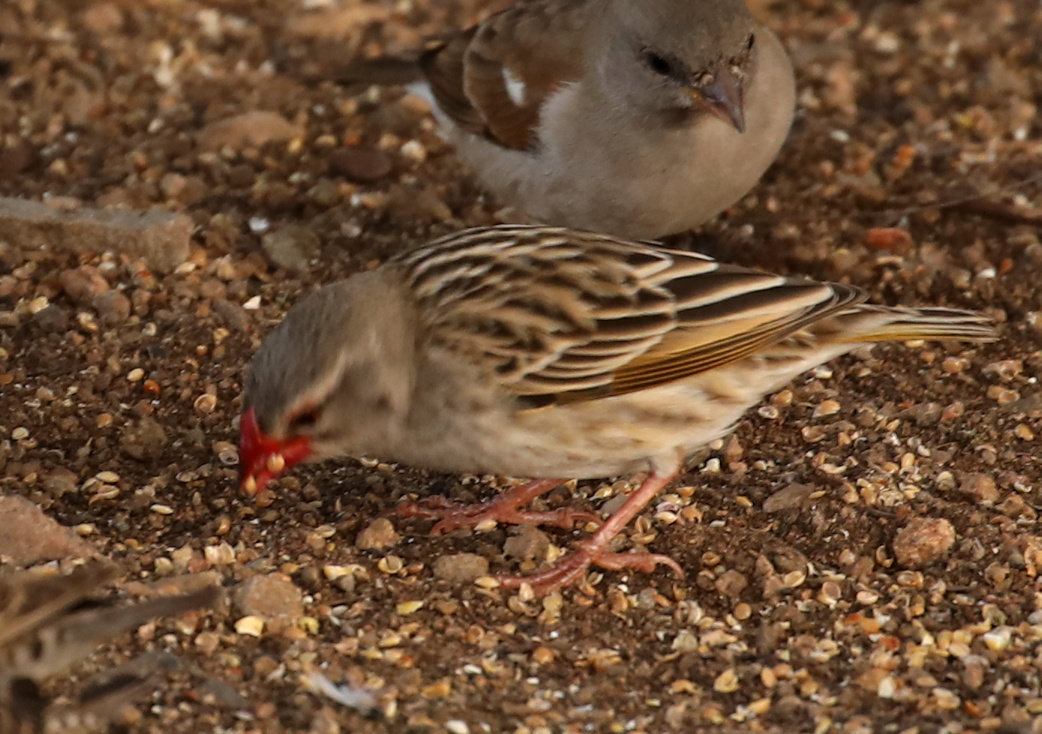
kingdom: Animalia
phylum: Chordata
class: Aves
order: Passeriformes
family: Ploceidae
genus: Quelea
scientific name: Quelea quelea
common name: Red-billed quelea
